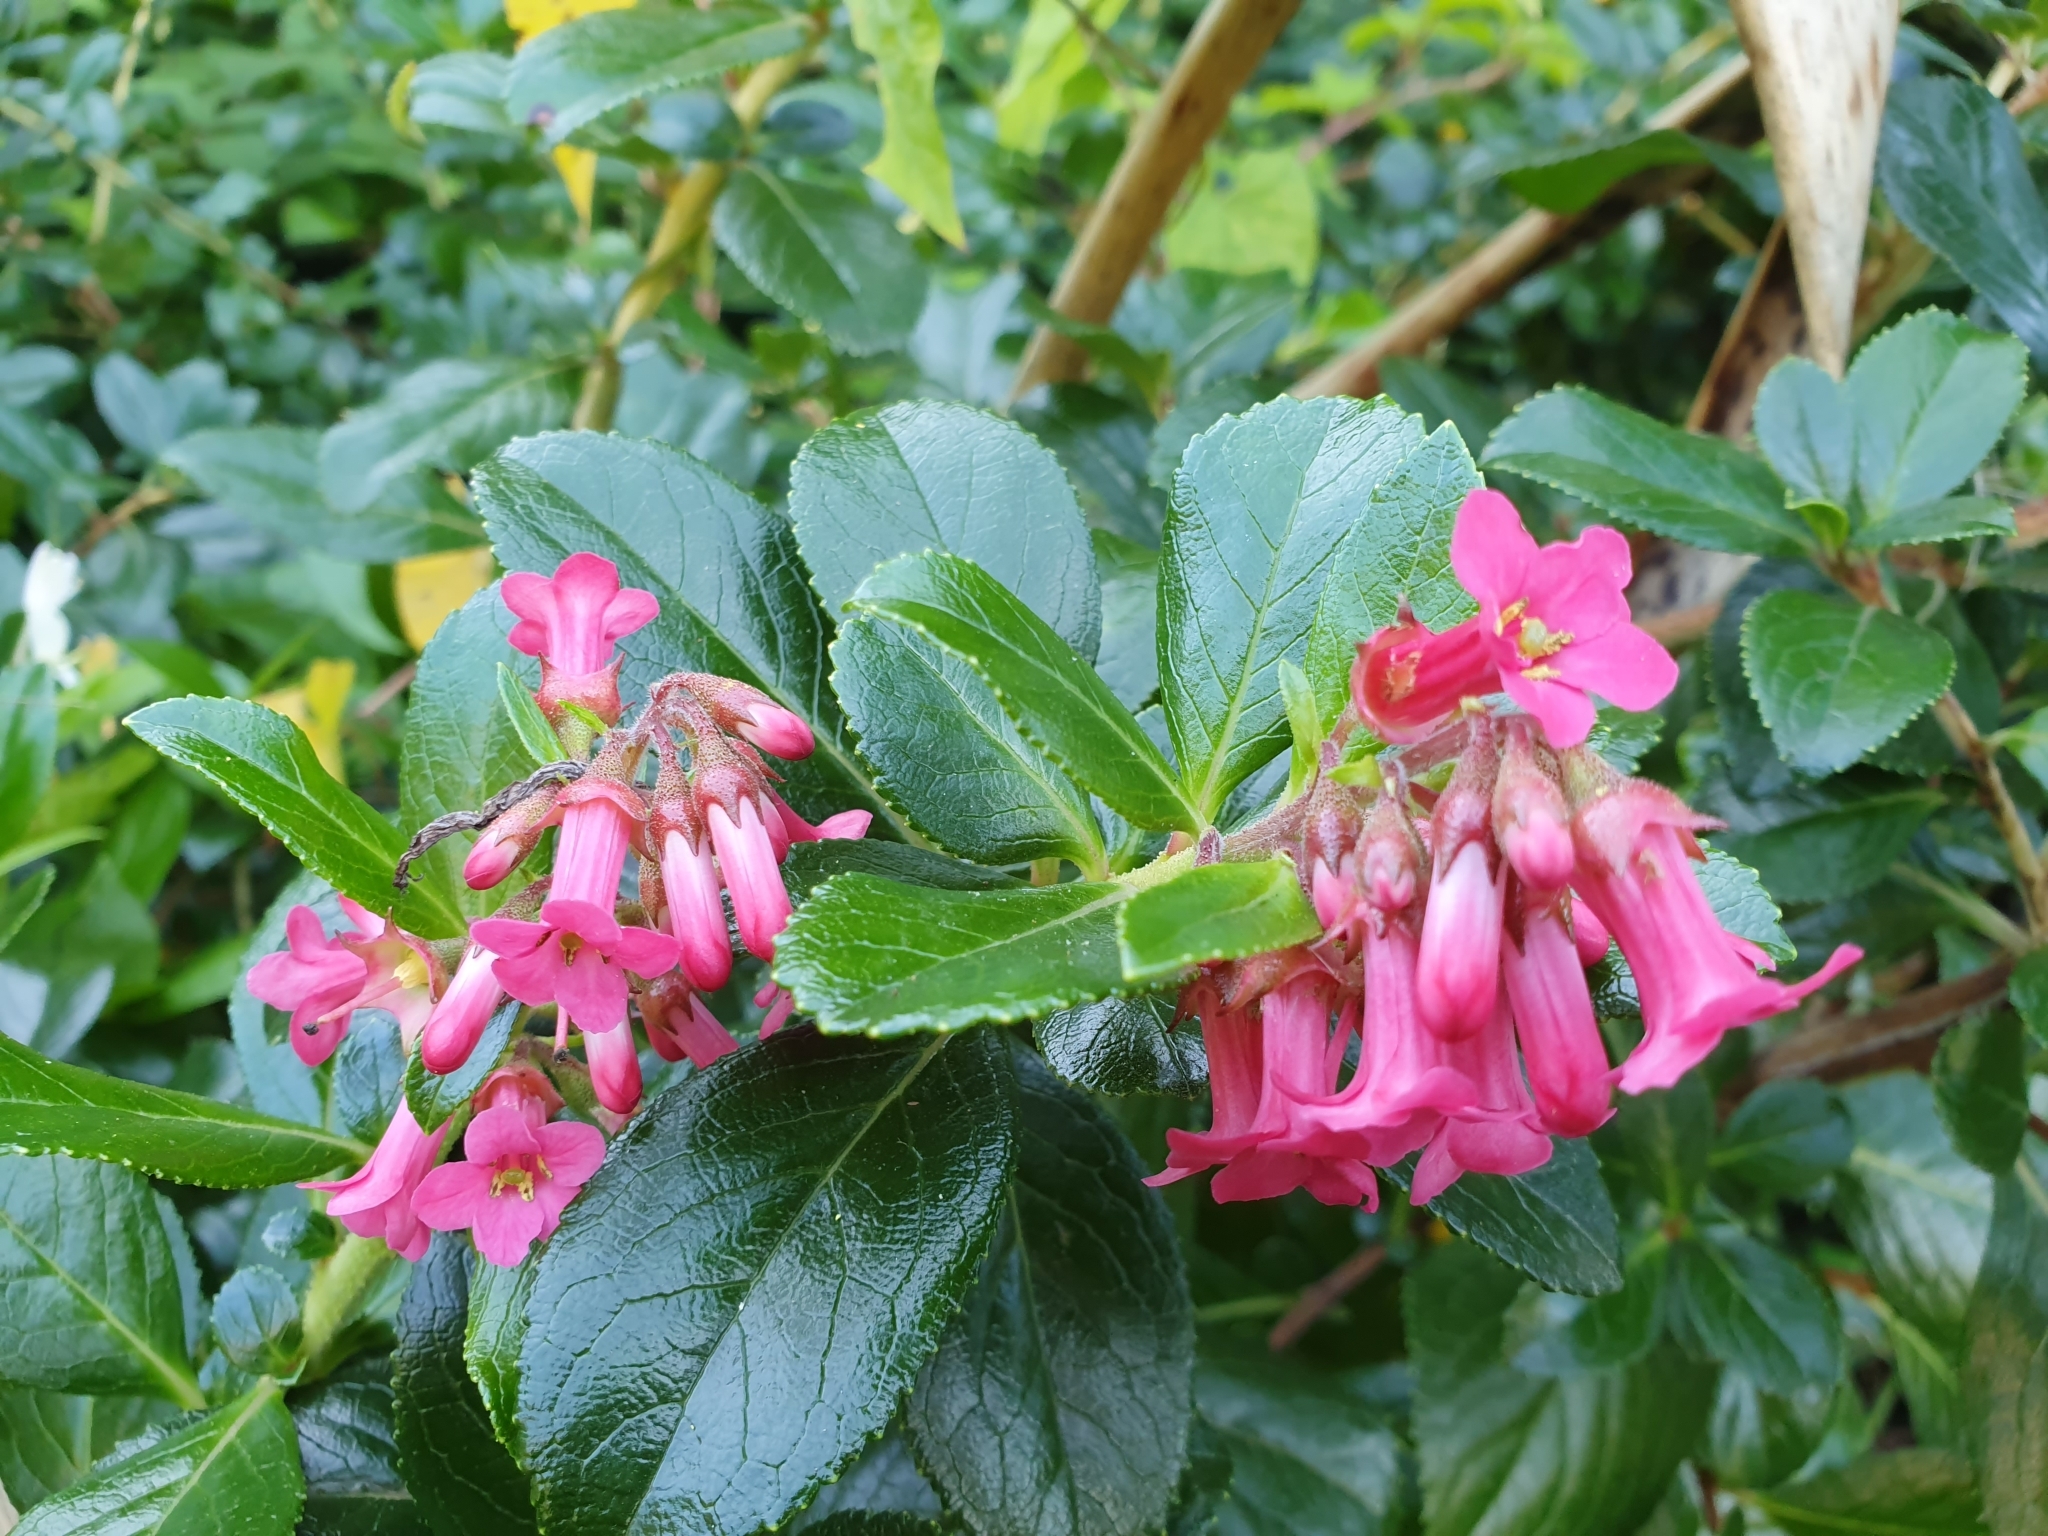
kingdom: Plantae
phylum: Tracheophyta
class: Magnoliopsida
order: Escalloniales
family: Escalloniaceae
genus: Escallonia
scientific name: Escallonia rubra
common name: Redclaws
